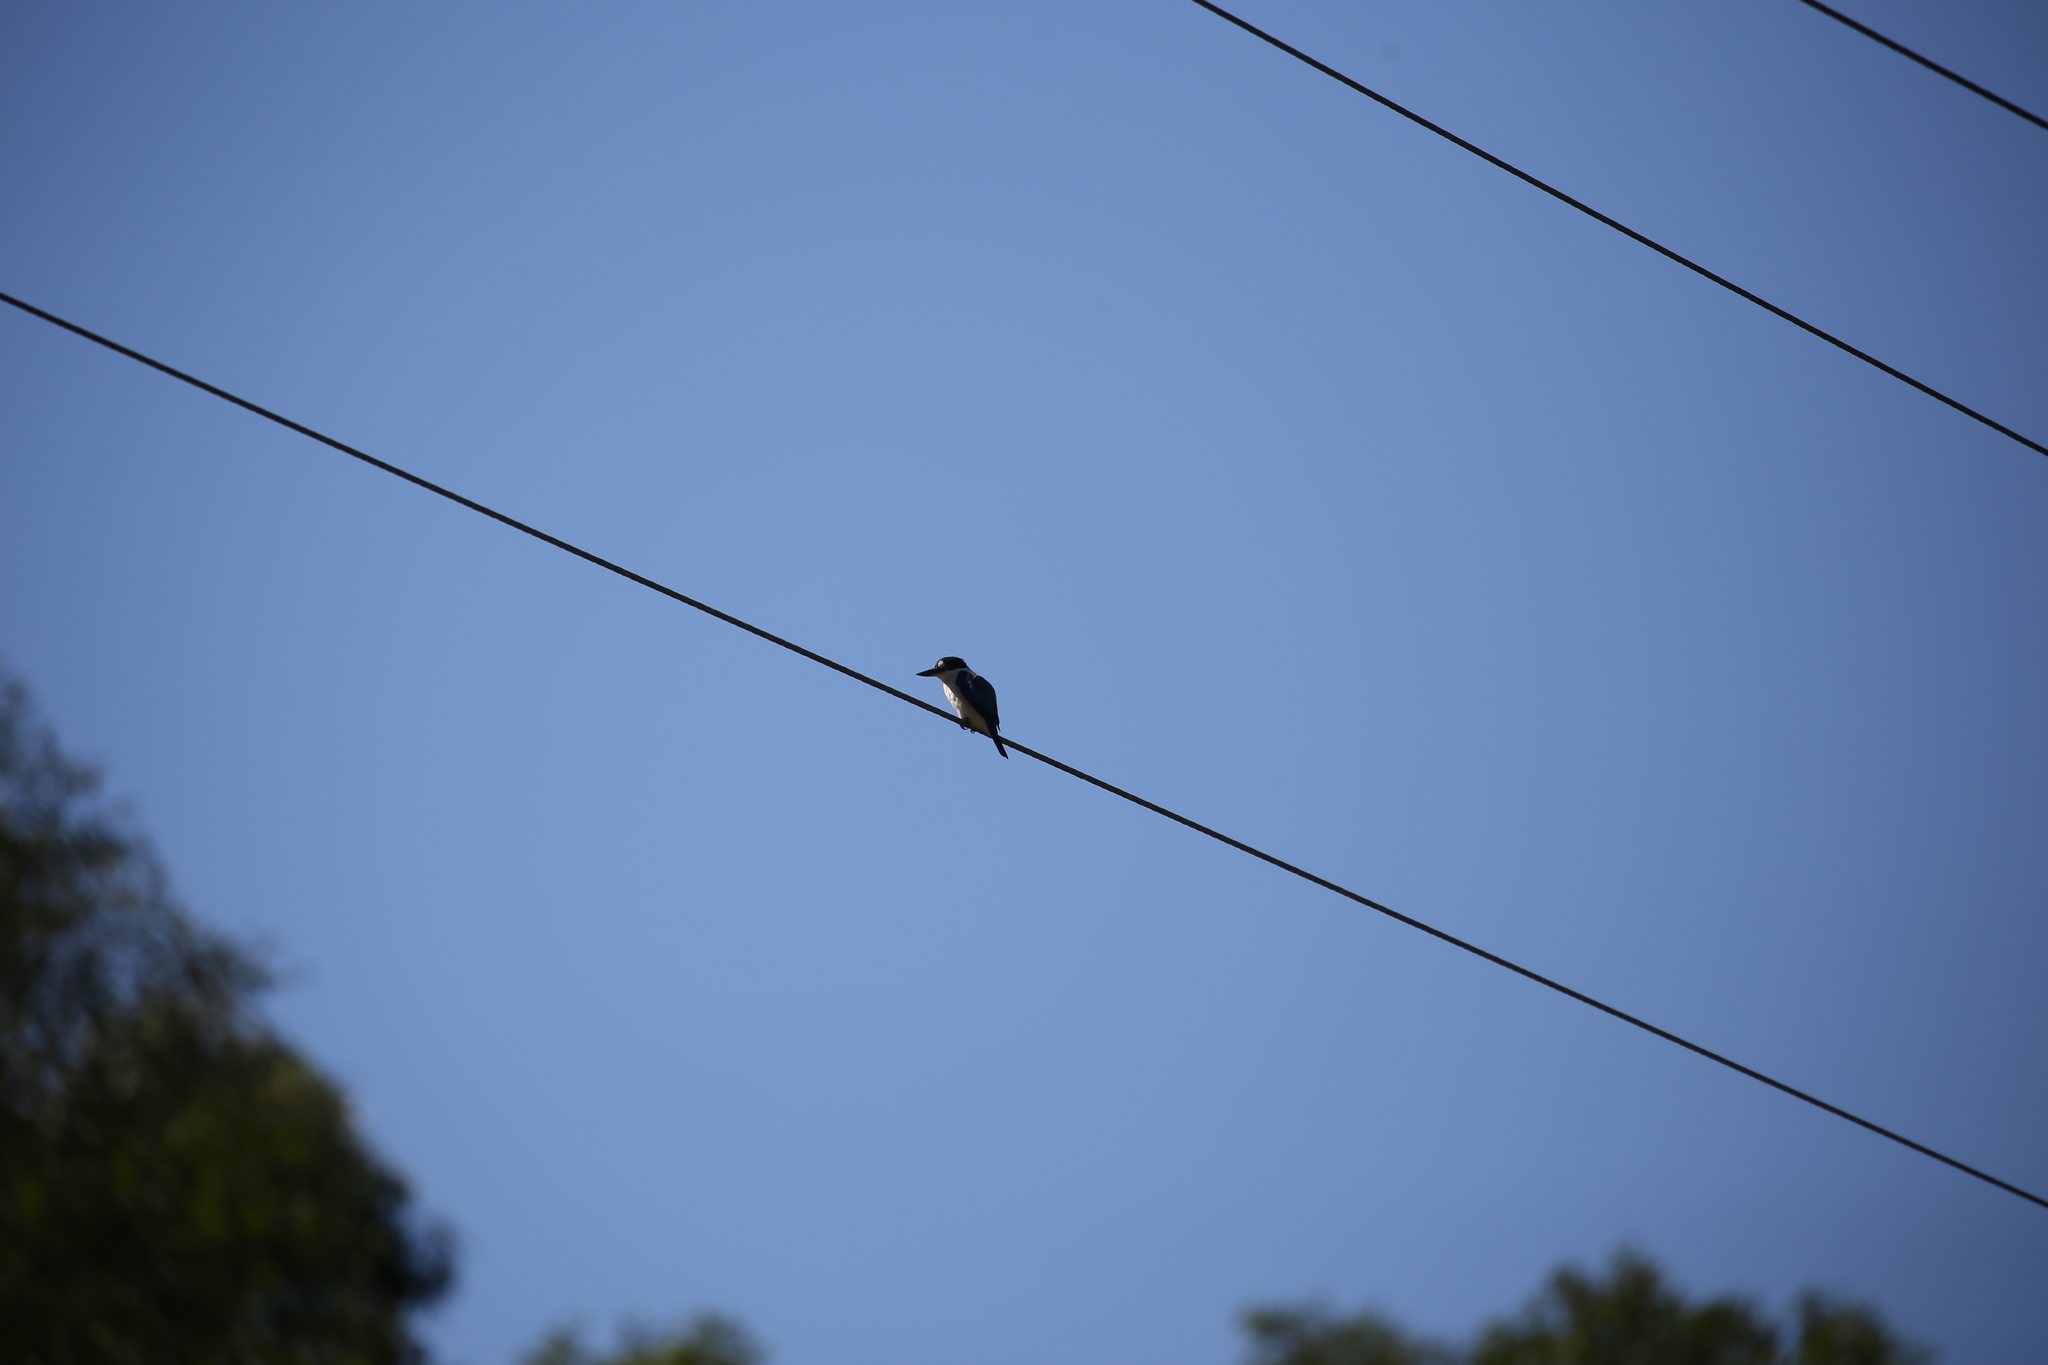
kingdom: Animalia
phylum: Chordata
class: Aves
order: Coraciiformes
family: Alcedinidae
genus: Todiramphus
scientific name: Todiramphus macleayii
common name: Forest kingfisher
